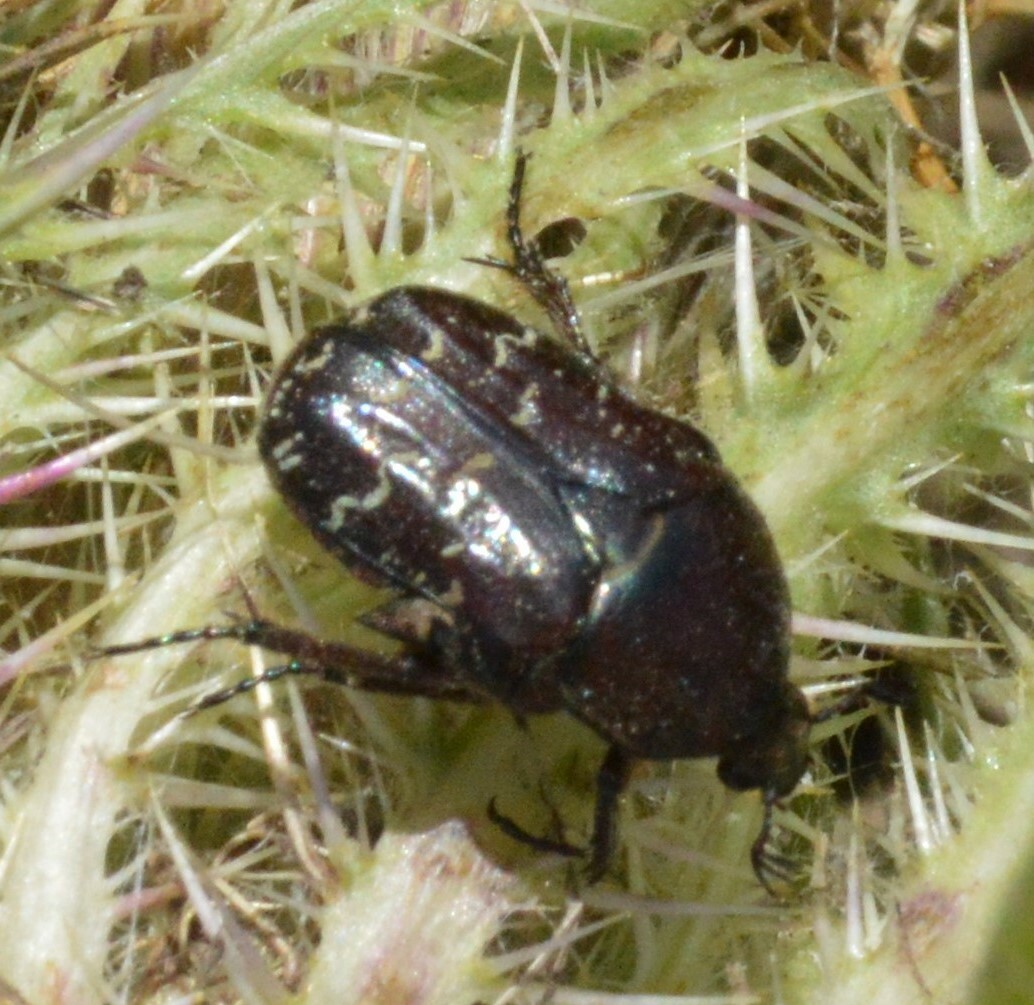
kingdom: Animalia
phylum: Arthropoda
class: Insecta
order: Coleoptera
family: Scarabaeidae
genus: Euphoria
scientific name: Euphoria sepulcralis
